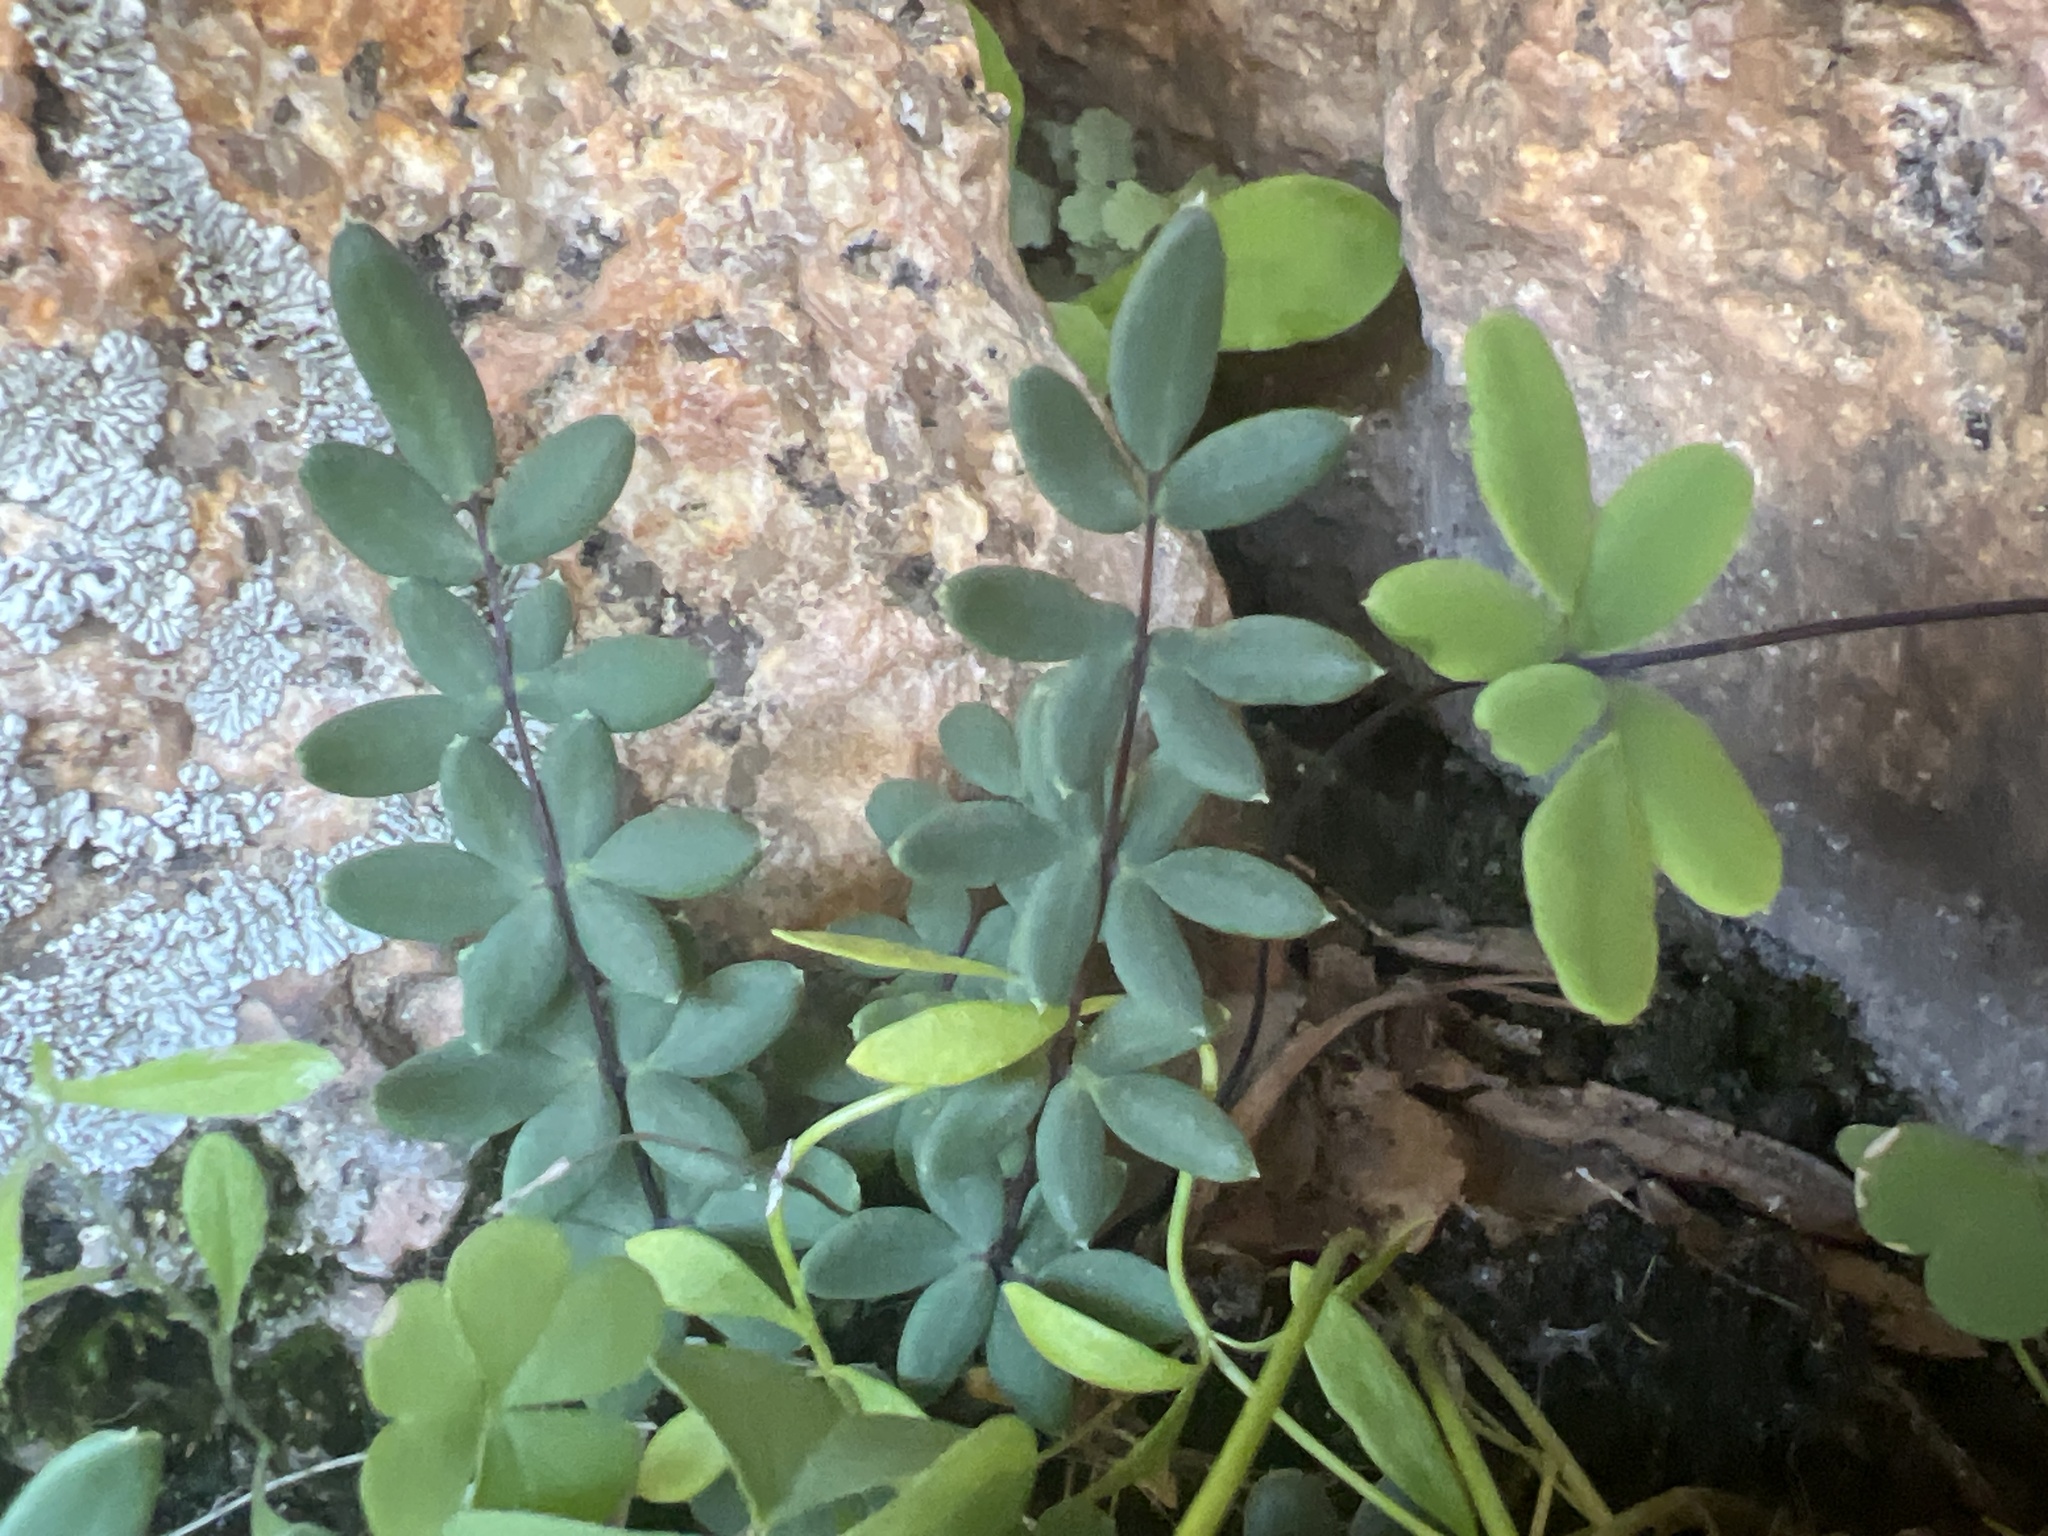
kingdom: Plantae
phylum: Tracheophyta
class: Polypodiopsida
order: Polypodiales
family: Pteridaceae
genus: Pellaea
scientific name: Pellaea wrightiana
